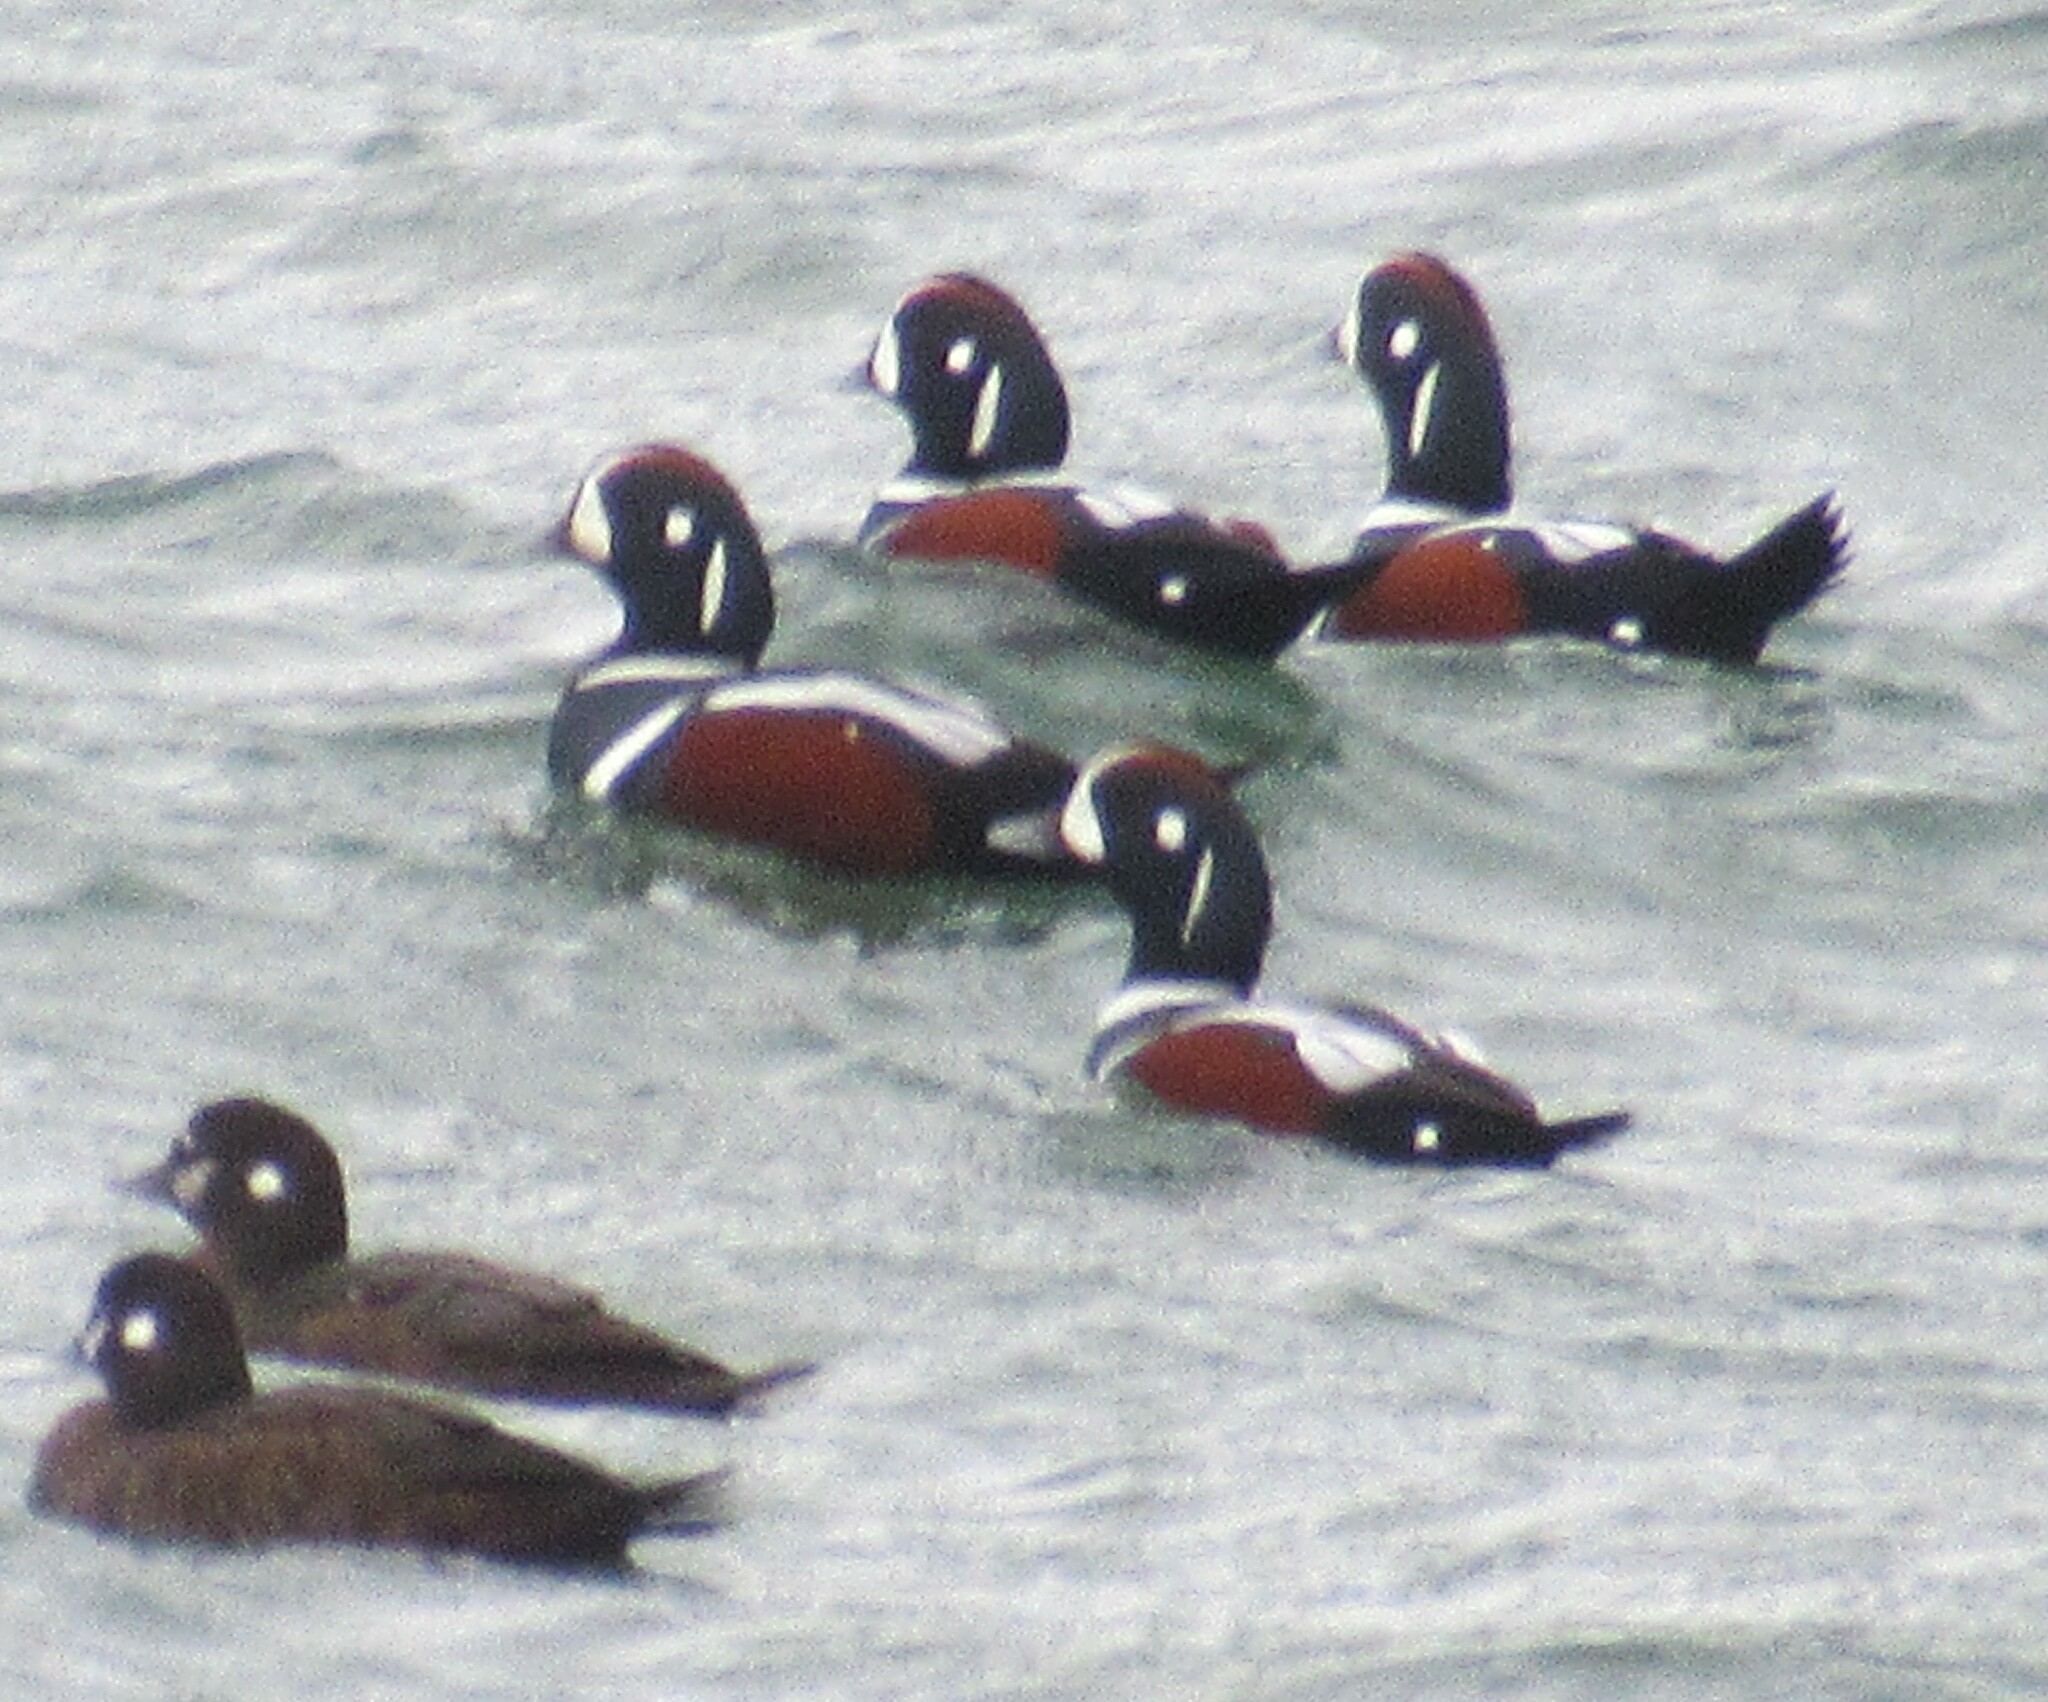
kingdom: Animalia
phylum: Chordata
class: Aves
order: Anseriformes
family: Anatidae
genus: Histrionicus
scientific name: Histrionicus histrionicus
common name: Harlequin duck
